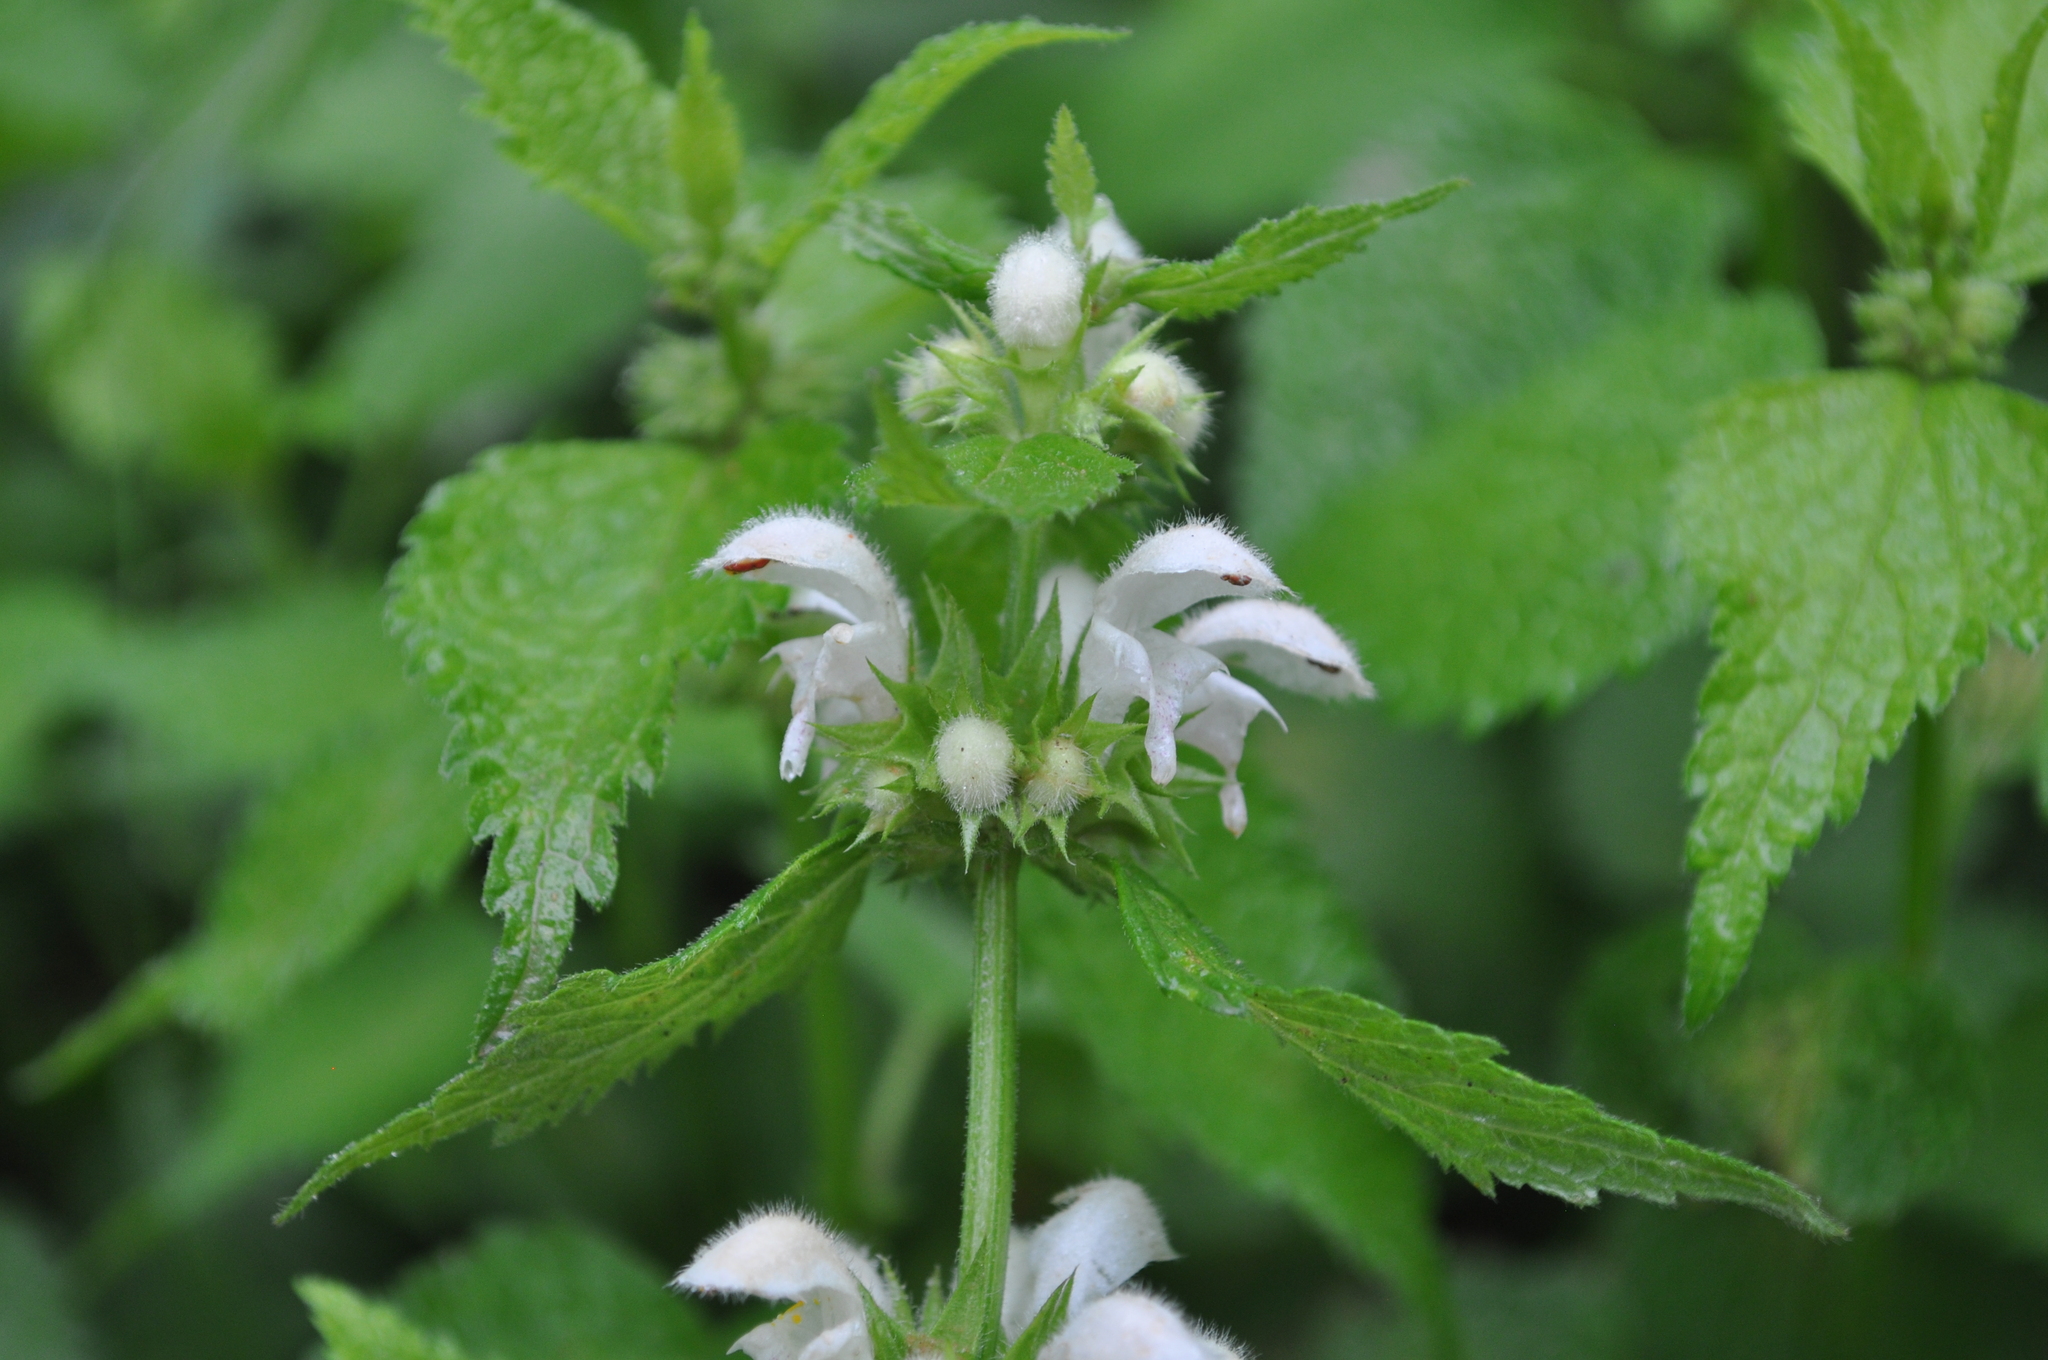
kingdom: Plantae
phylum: Tracheophyta
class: Magnoliopsida
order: Lamiales
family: Lamiaceae
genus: Lamium
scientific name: Lamium flexuosum
